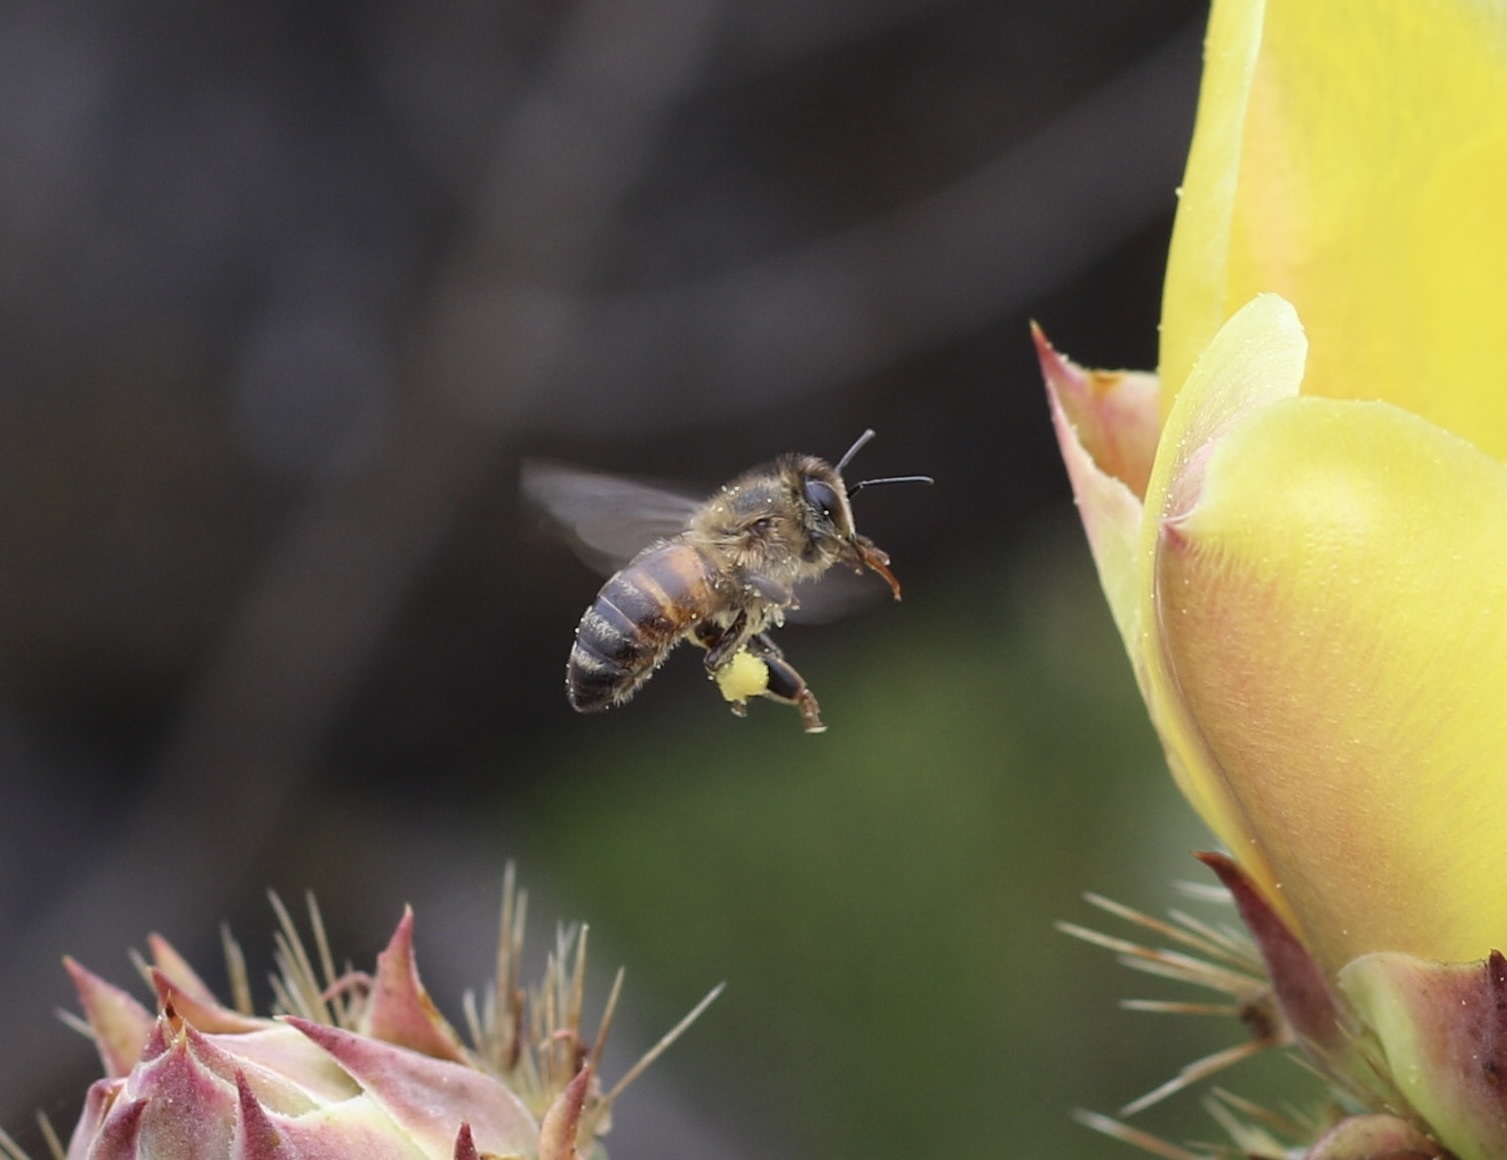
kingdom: Animalia
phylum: Arthropoda
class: Insecta
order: Hymenoptera
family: Apidae
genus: Apis
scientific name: Apis mellifera
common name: Honey bee
